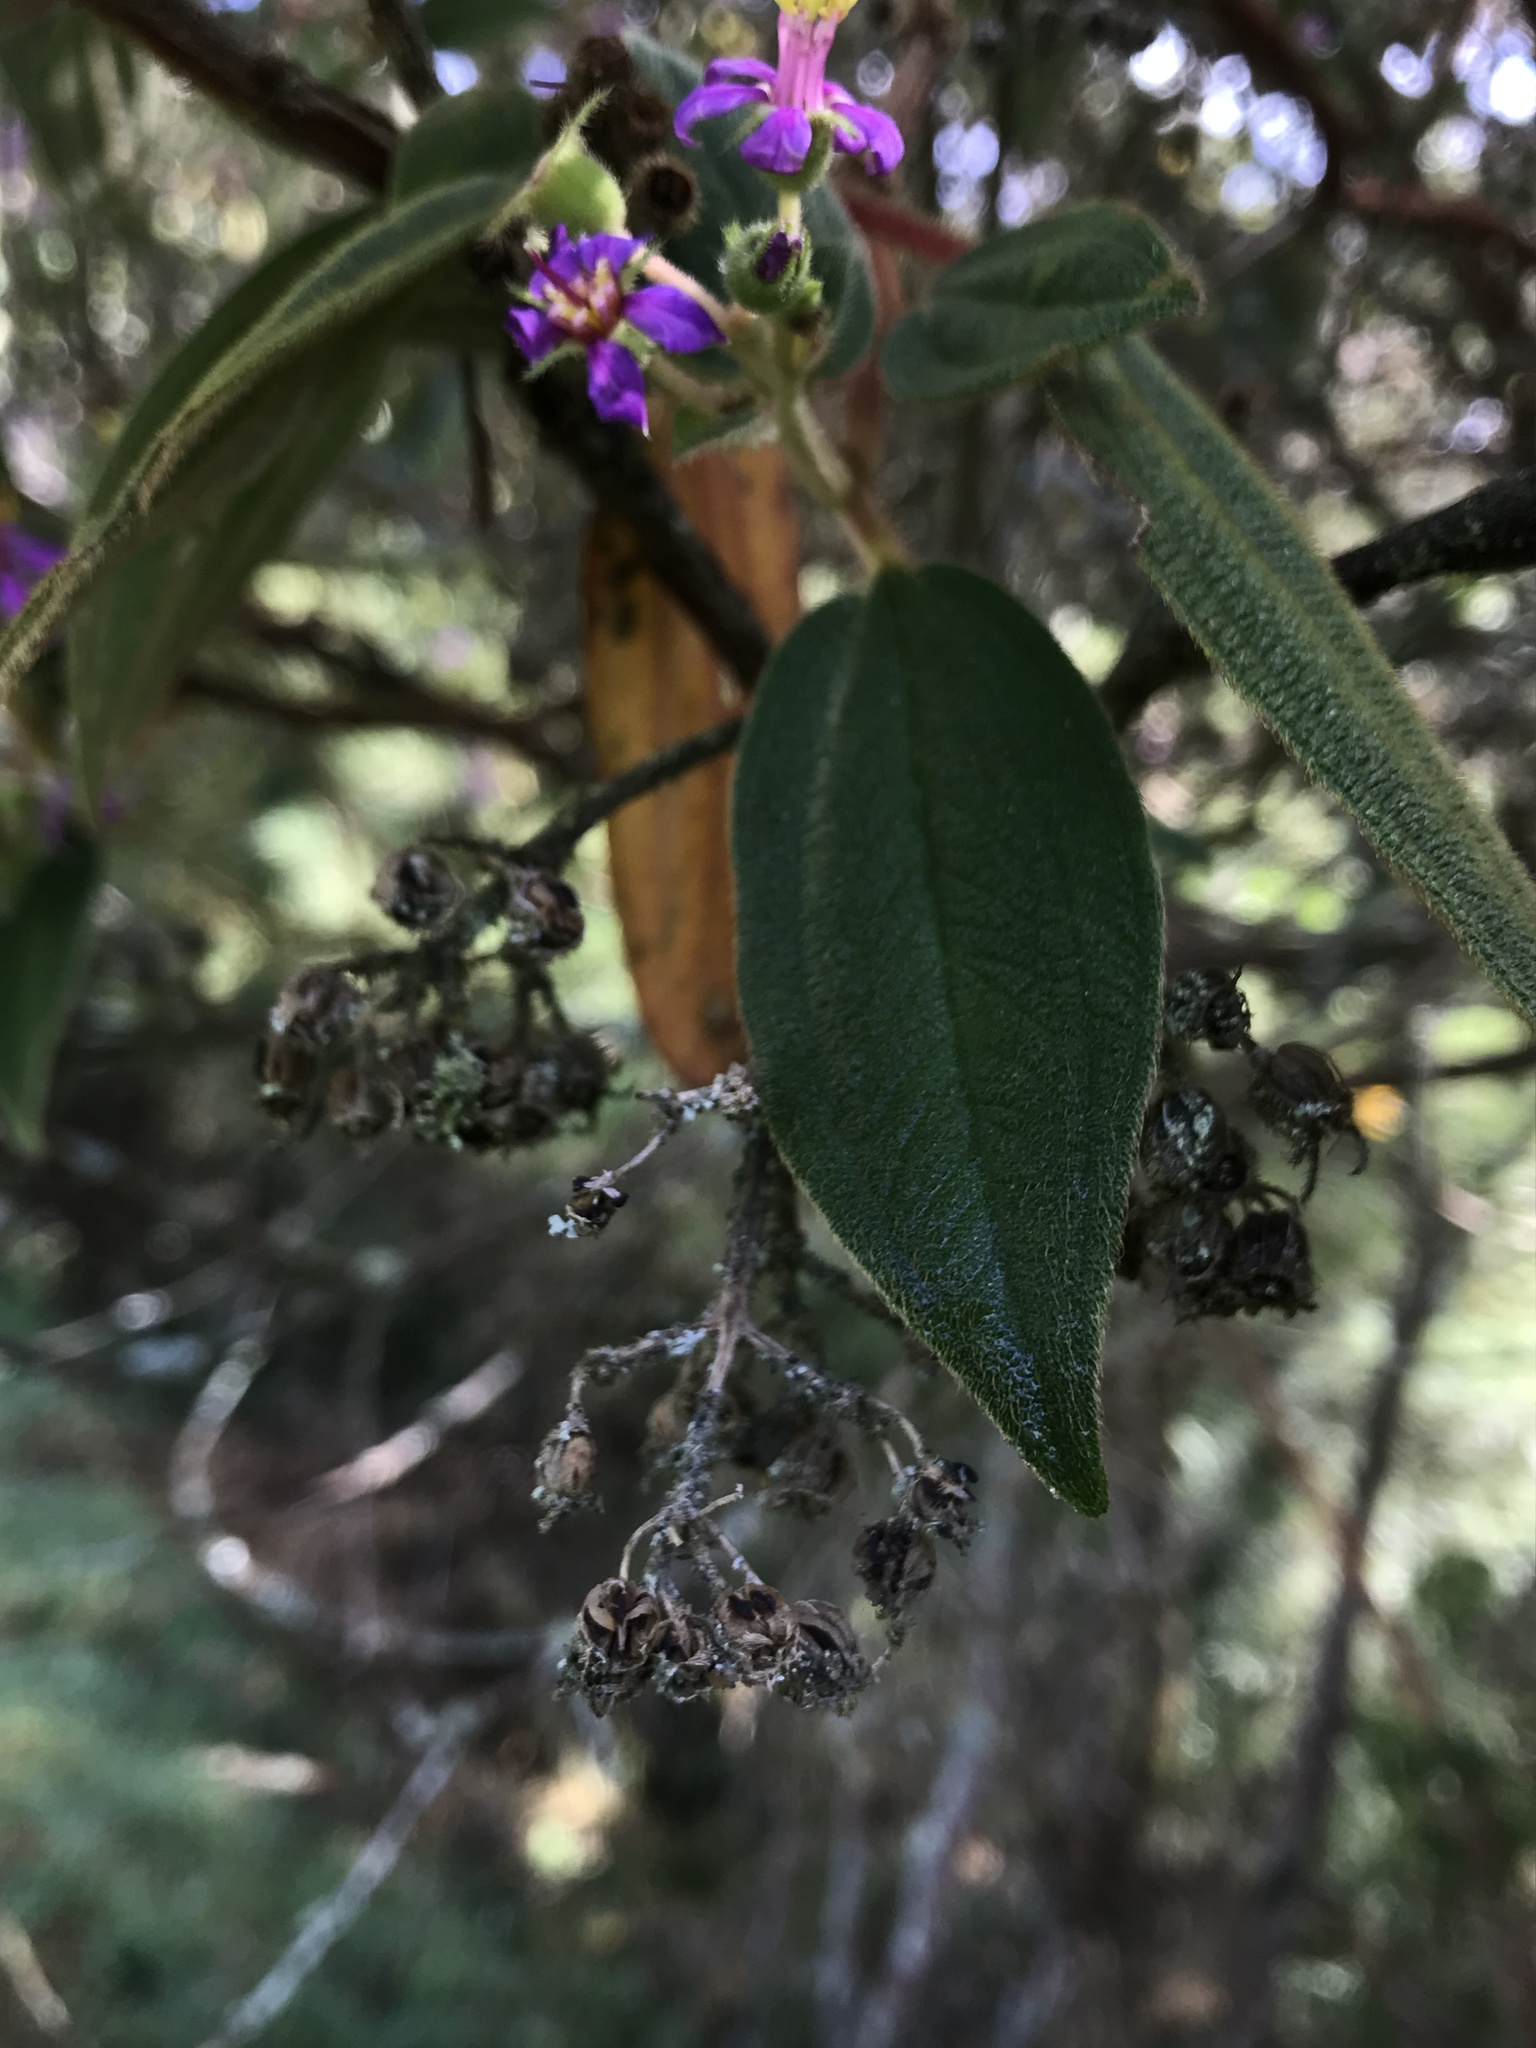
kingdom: Plantae
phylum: Tracheophyta
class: Magnoliopsida
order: Myrtales
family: Melastomataceae
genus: Chaetogastra
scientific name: Chaetogastra mollis
